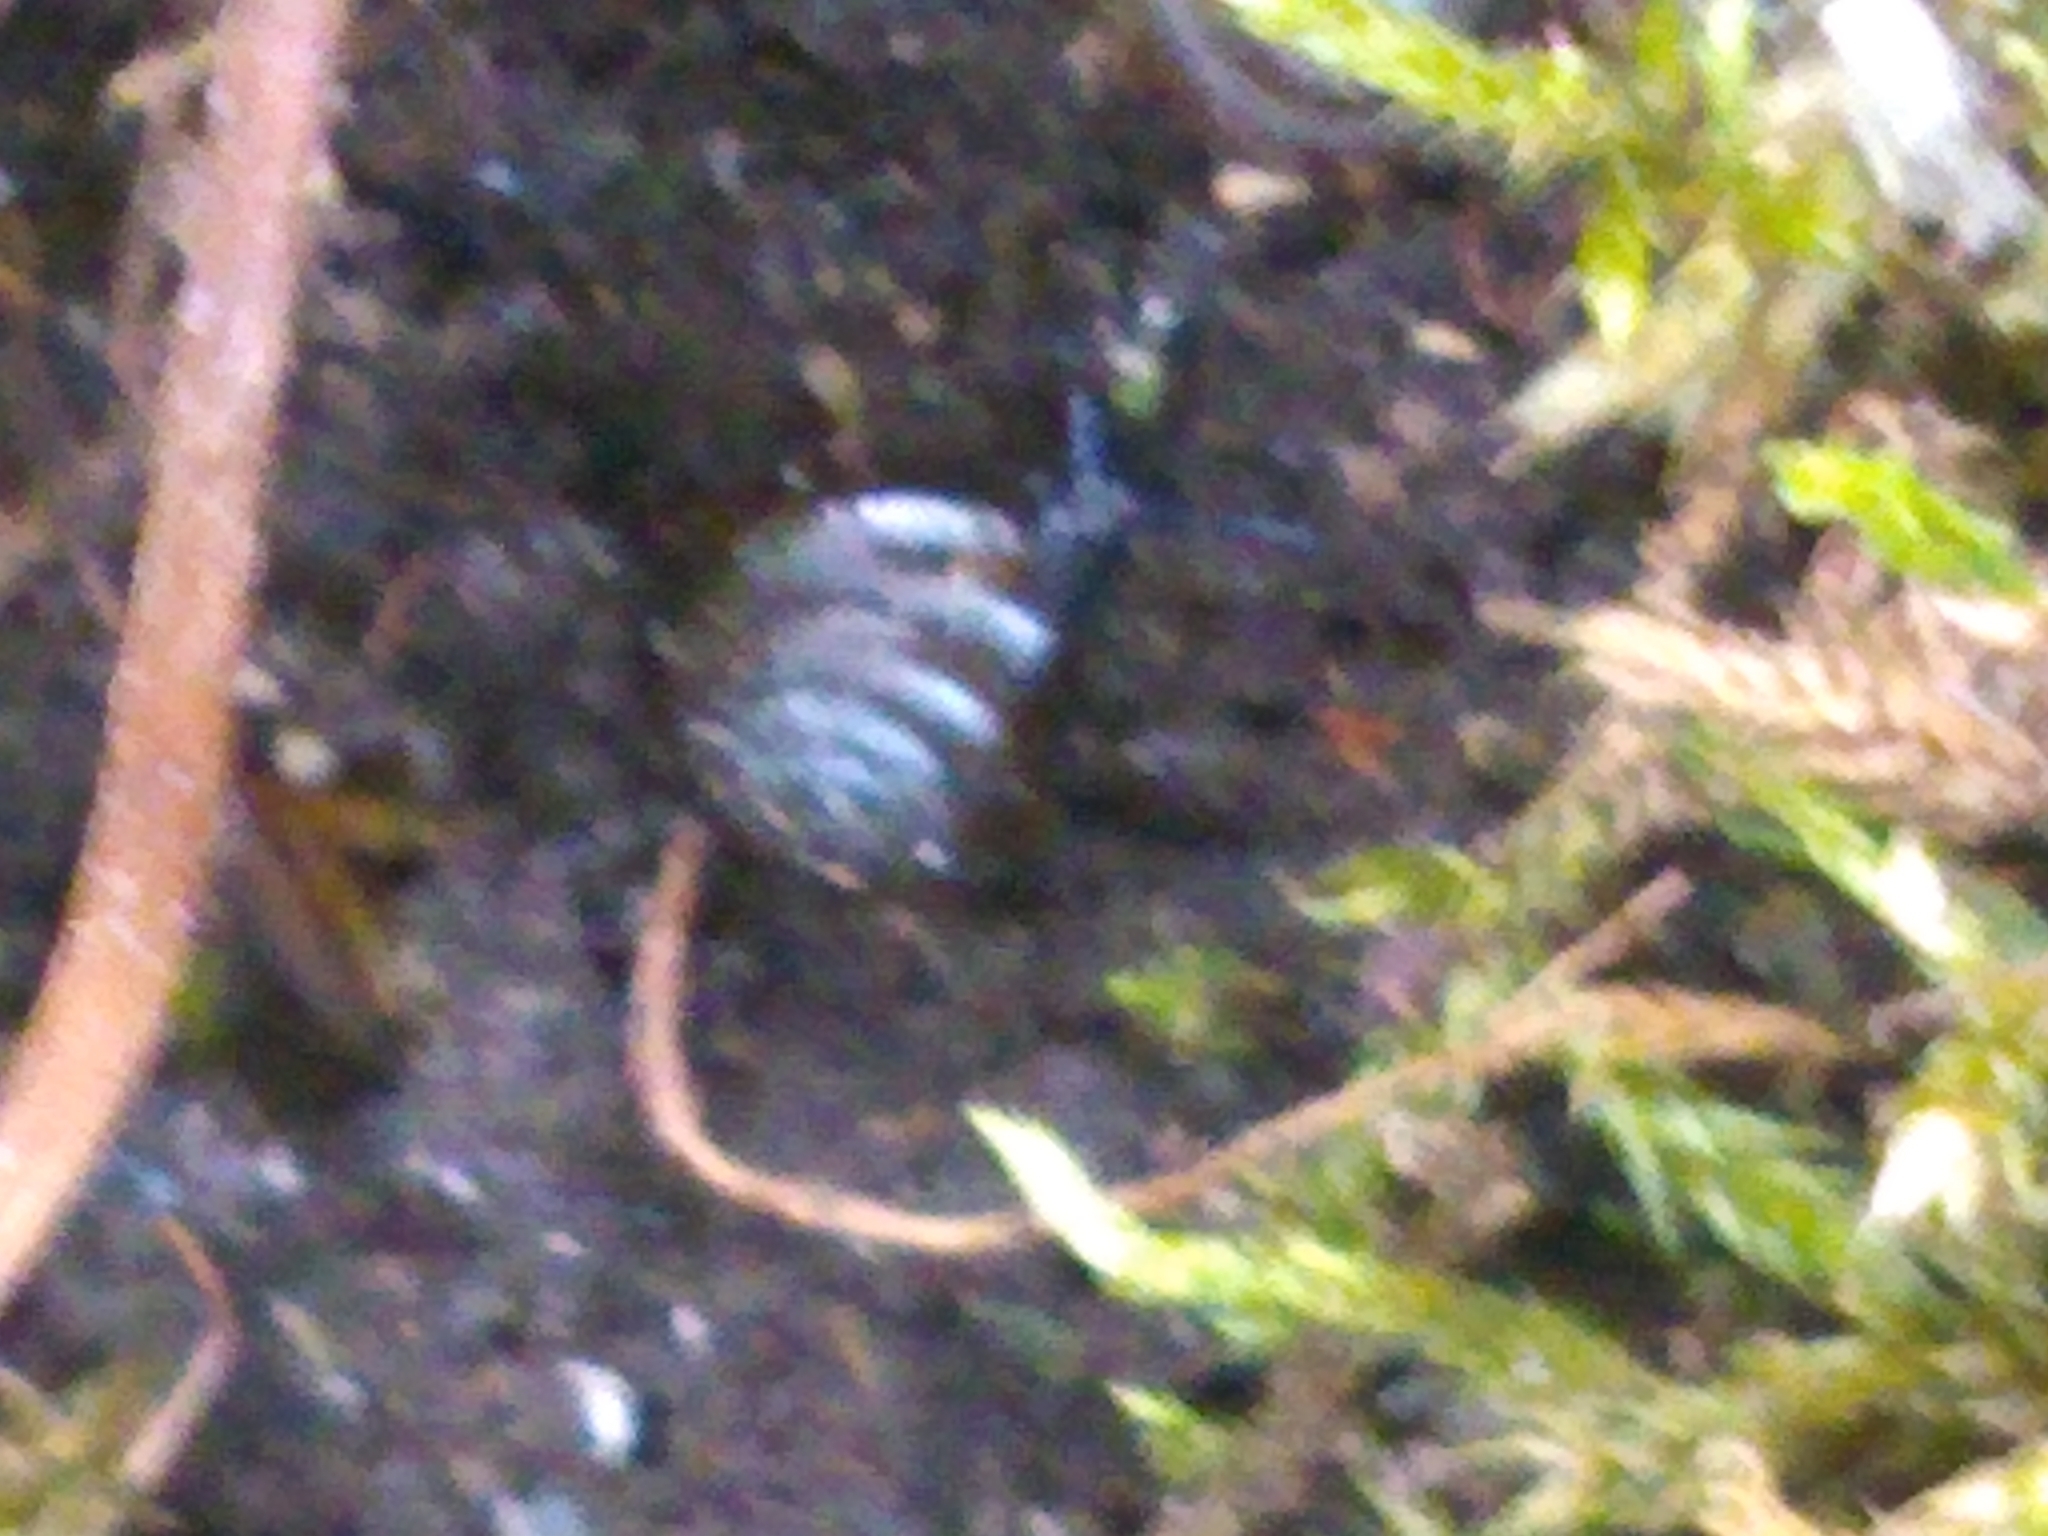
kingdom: Animalia
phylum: Mollusca
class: Gastropoda
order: Stylommatophora
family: Gastrodontidae
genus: Zonitoides
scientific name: Zonitoides nitidus
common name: Shiny glass snail
